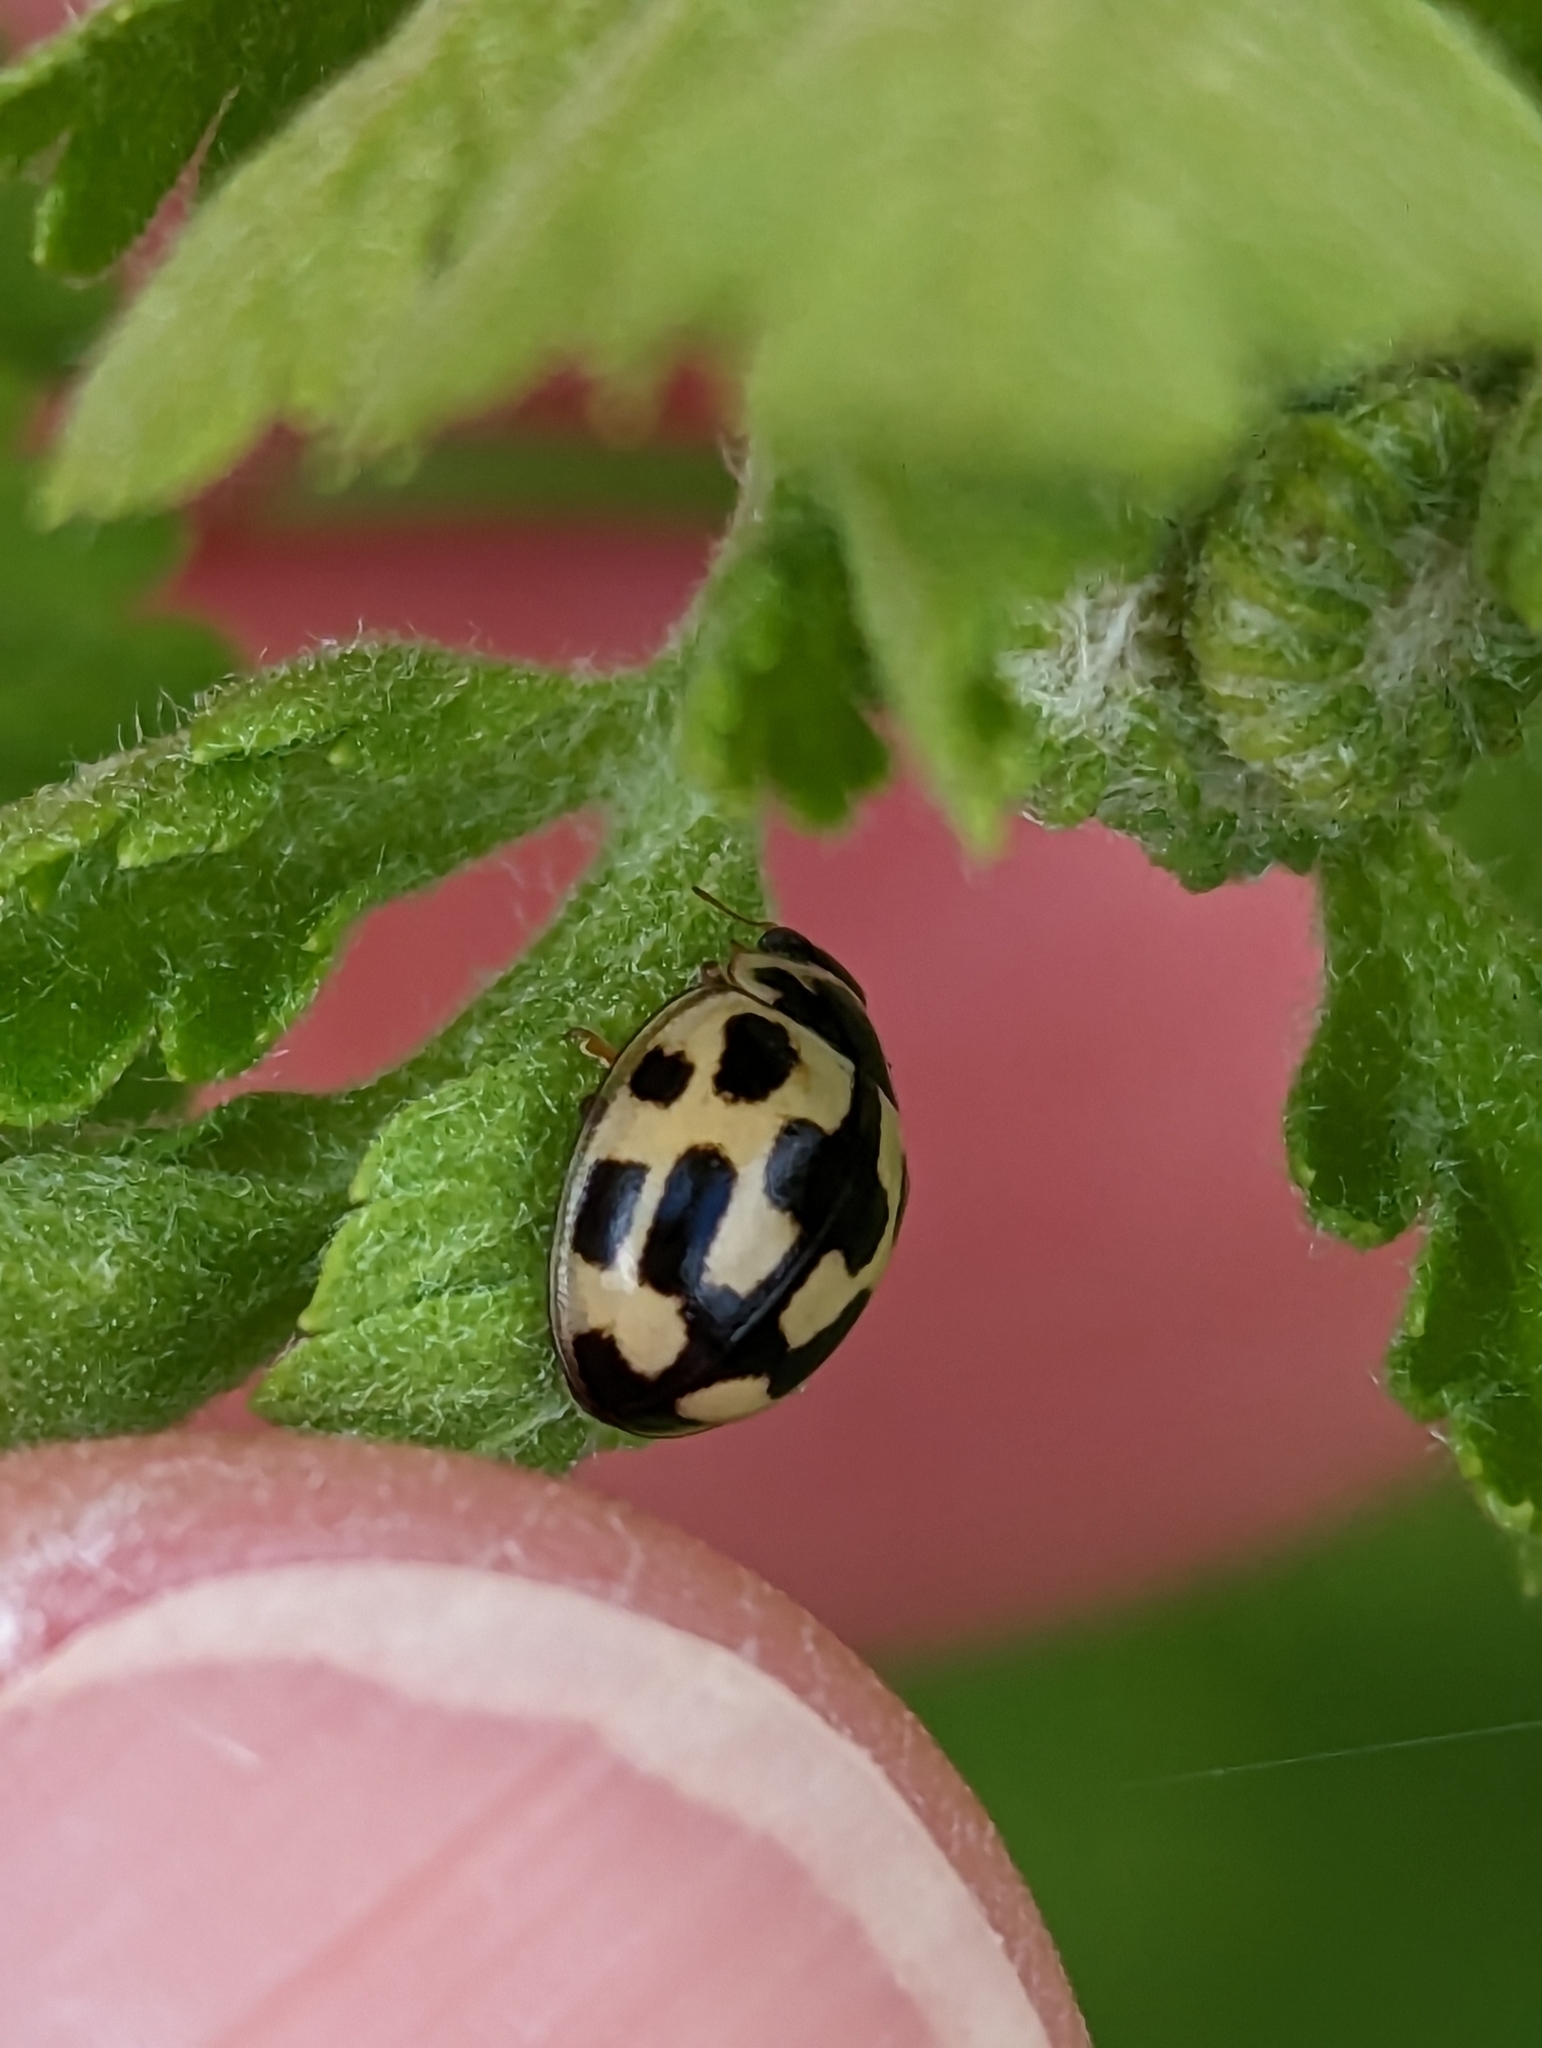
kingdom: Animalia
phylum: Arthropoda
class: Insecta
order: Coleoptera
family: Coccinellidae
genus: Propylaea
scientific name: Propylaea quatuordecimpunctata
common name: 14-spotted ladybird beetle
